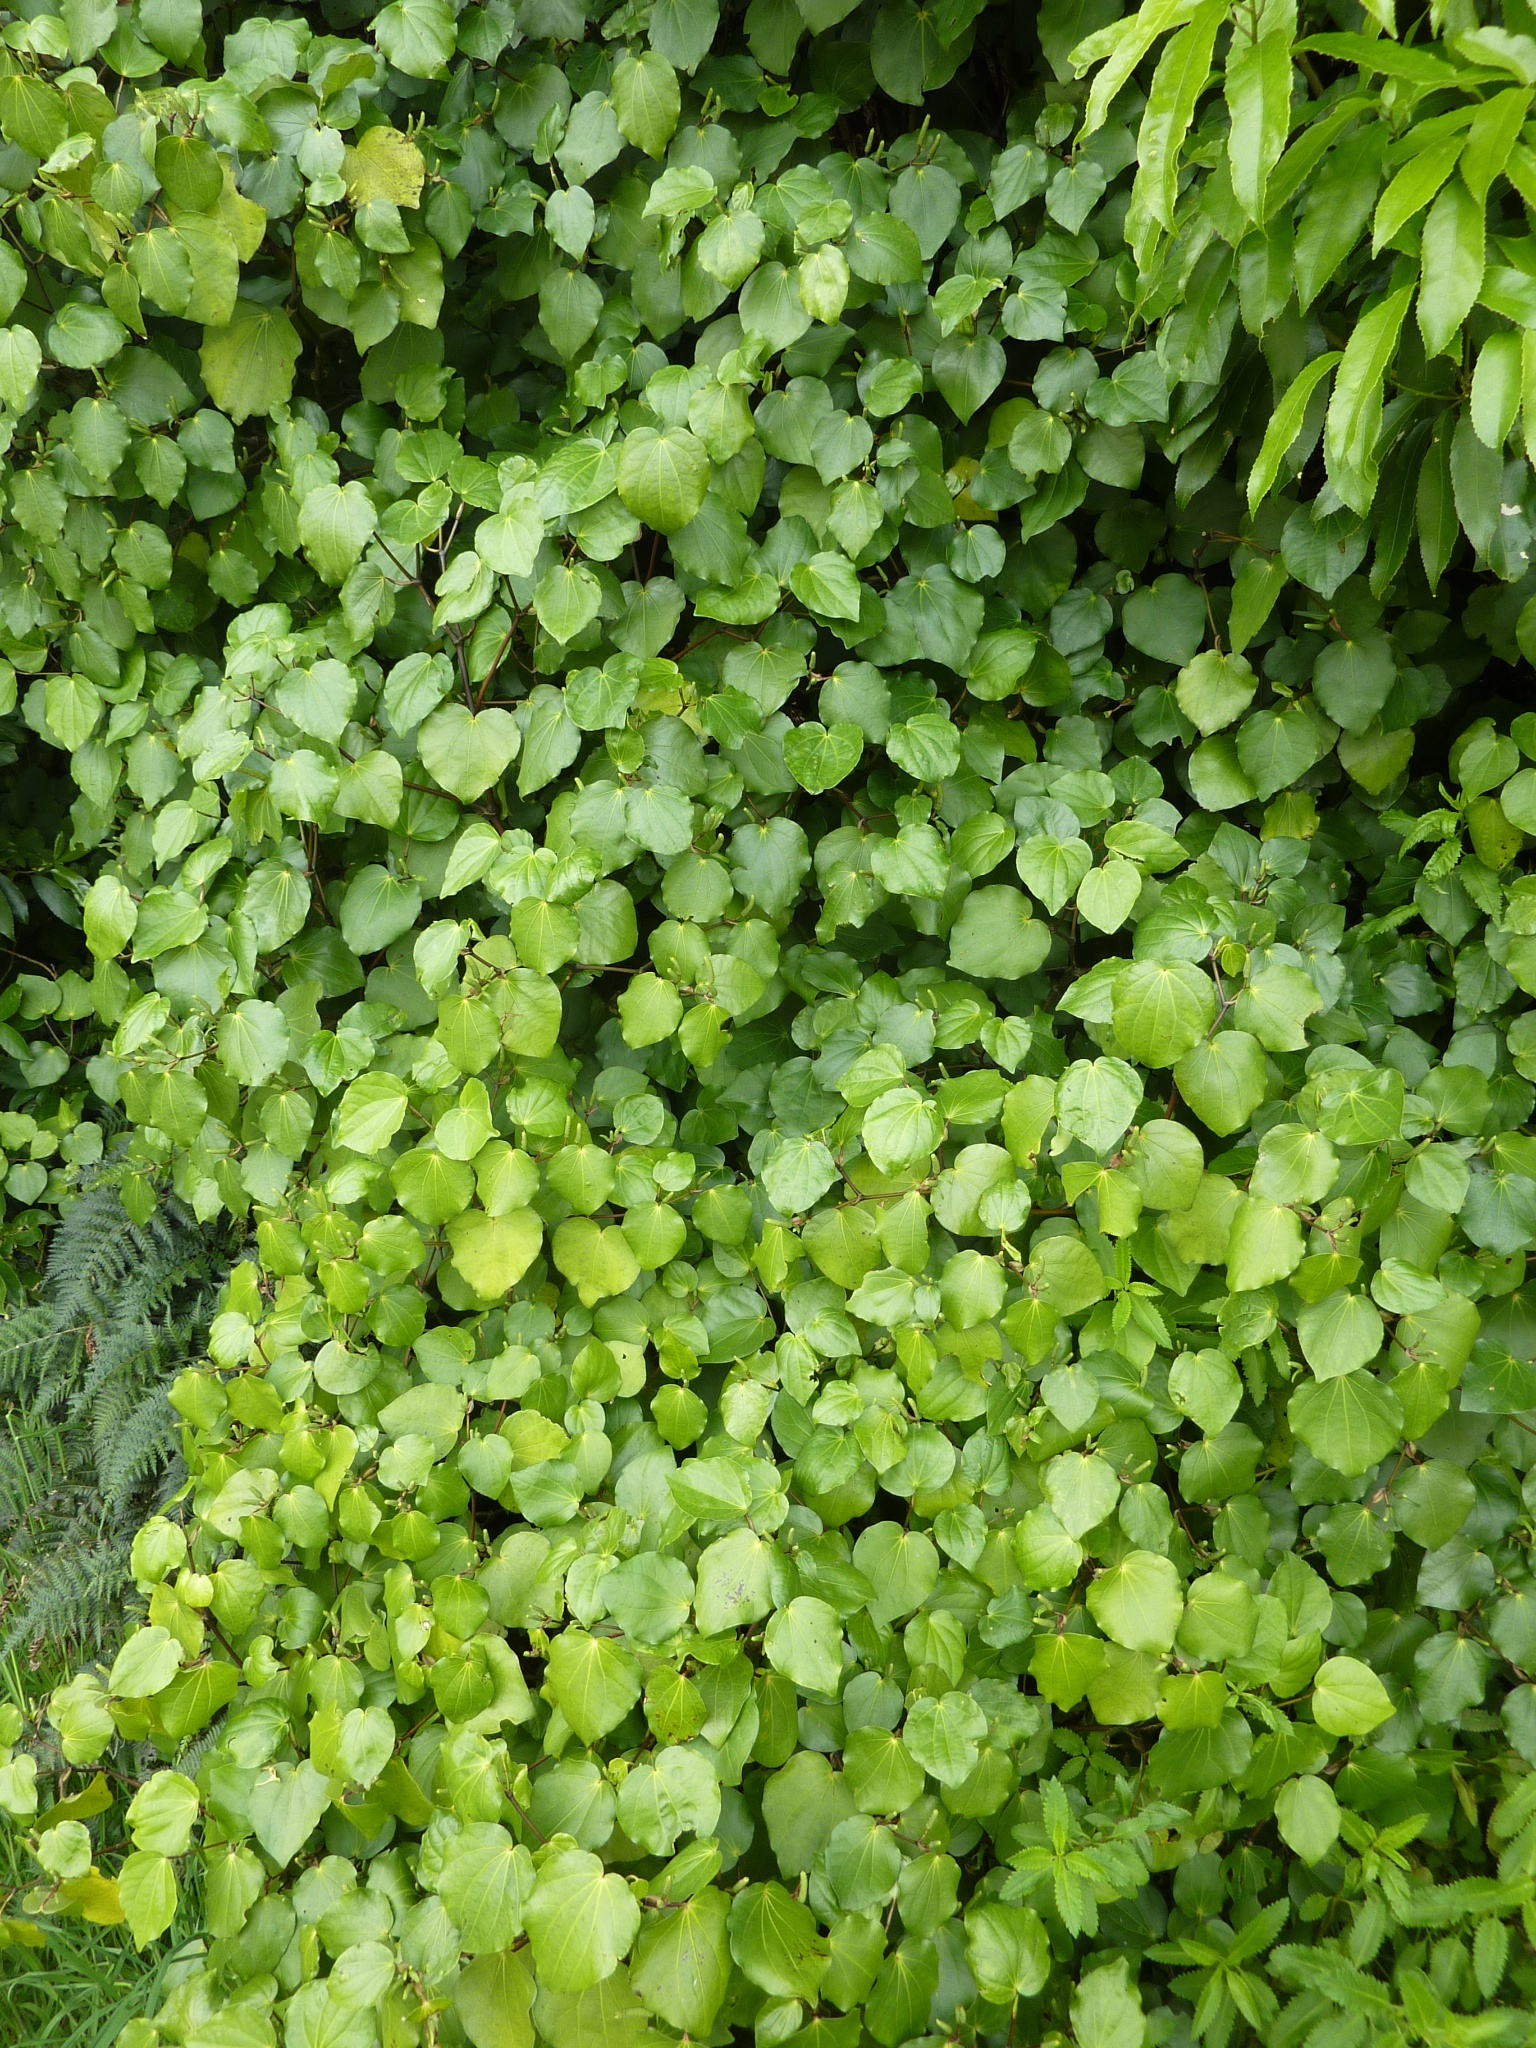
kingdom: Plantae
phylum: Tracheophyta
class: Magnoliopsida
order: Piperales
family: Piperaceae
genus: Macropiper
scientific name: Macropiper excelsum
